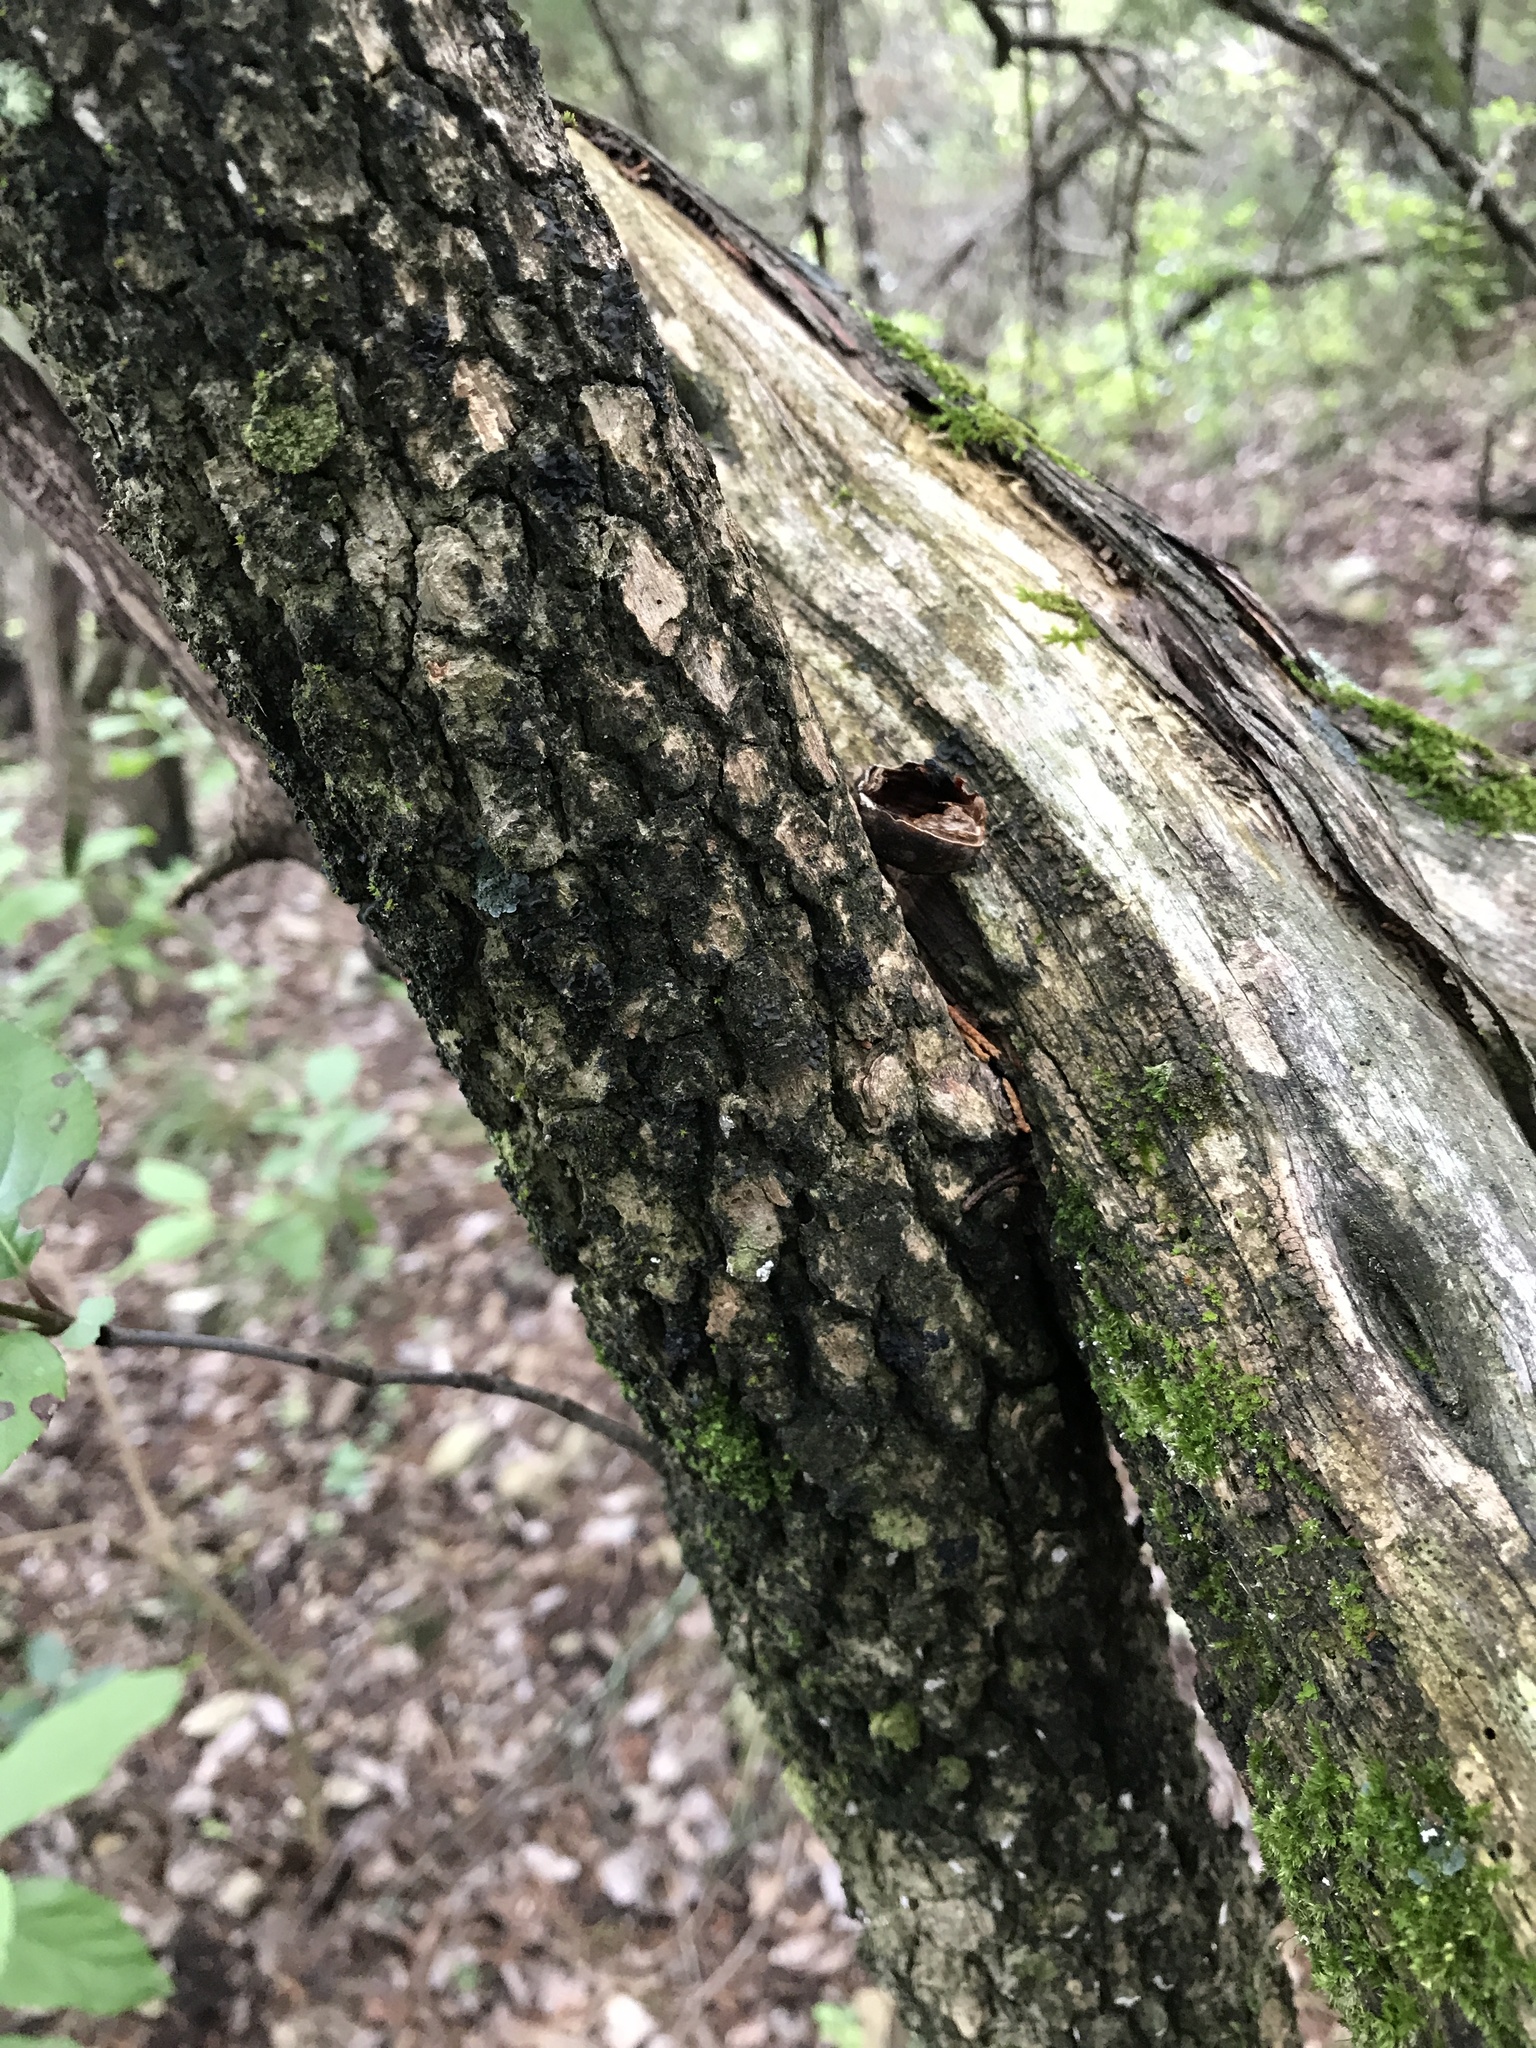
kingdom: Plantae
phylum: Tracheophyta
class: Magnoliopsida
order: Dipsacales
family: Viburnaceae
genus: Viburnum
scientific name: Viburnum rufidulum
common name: Blue haw
